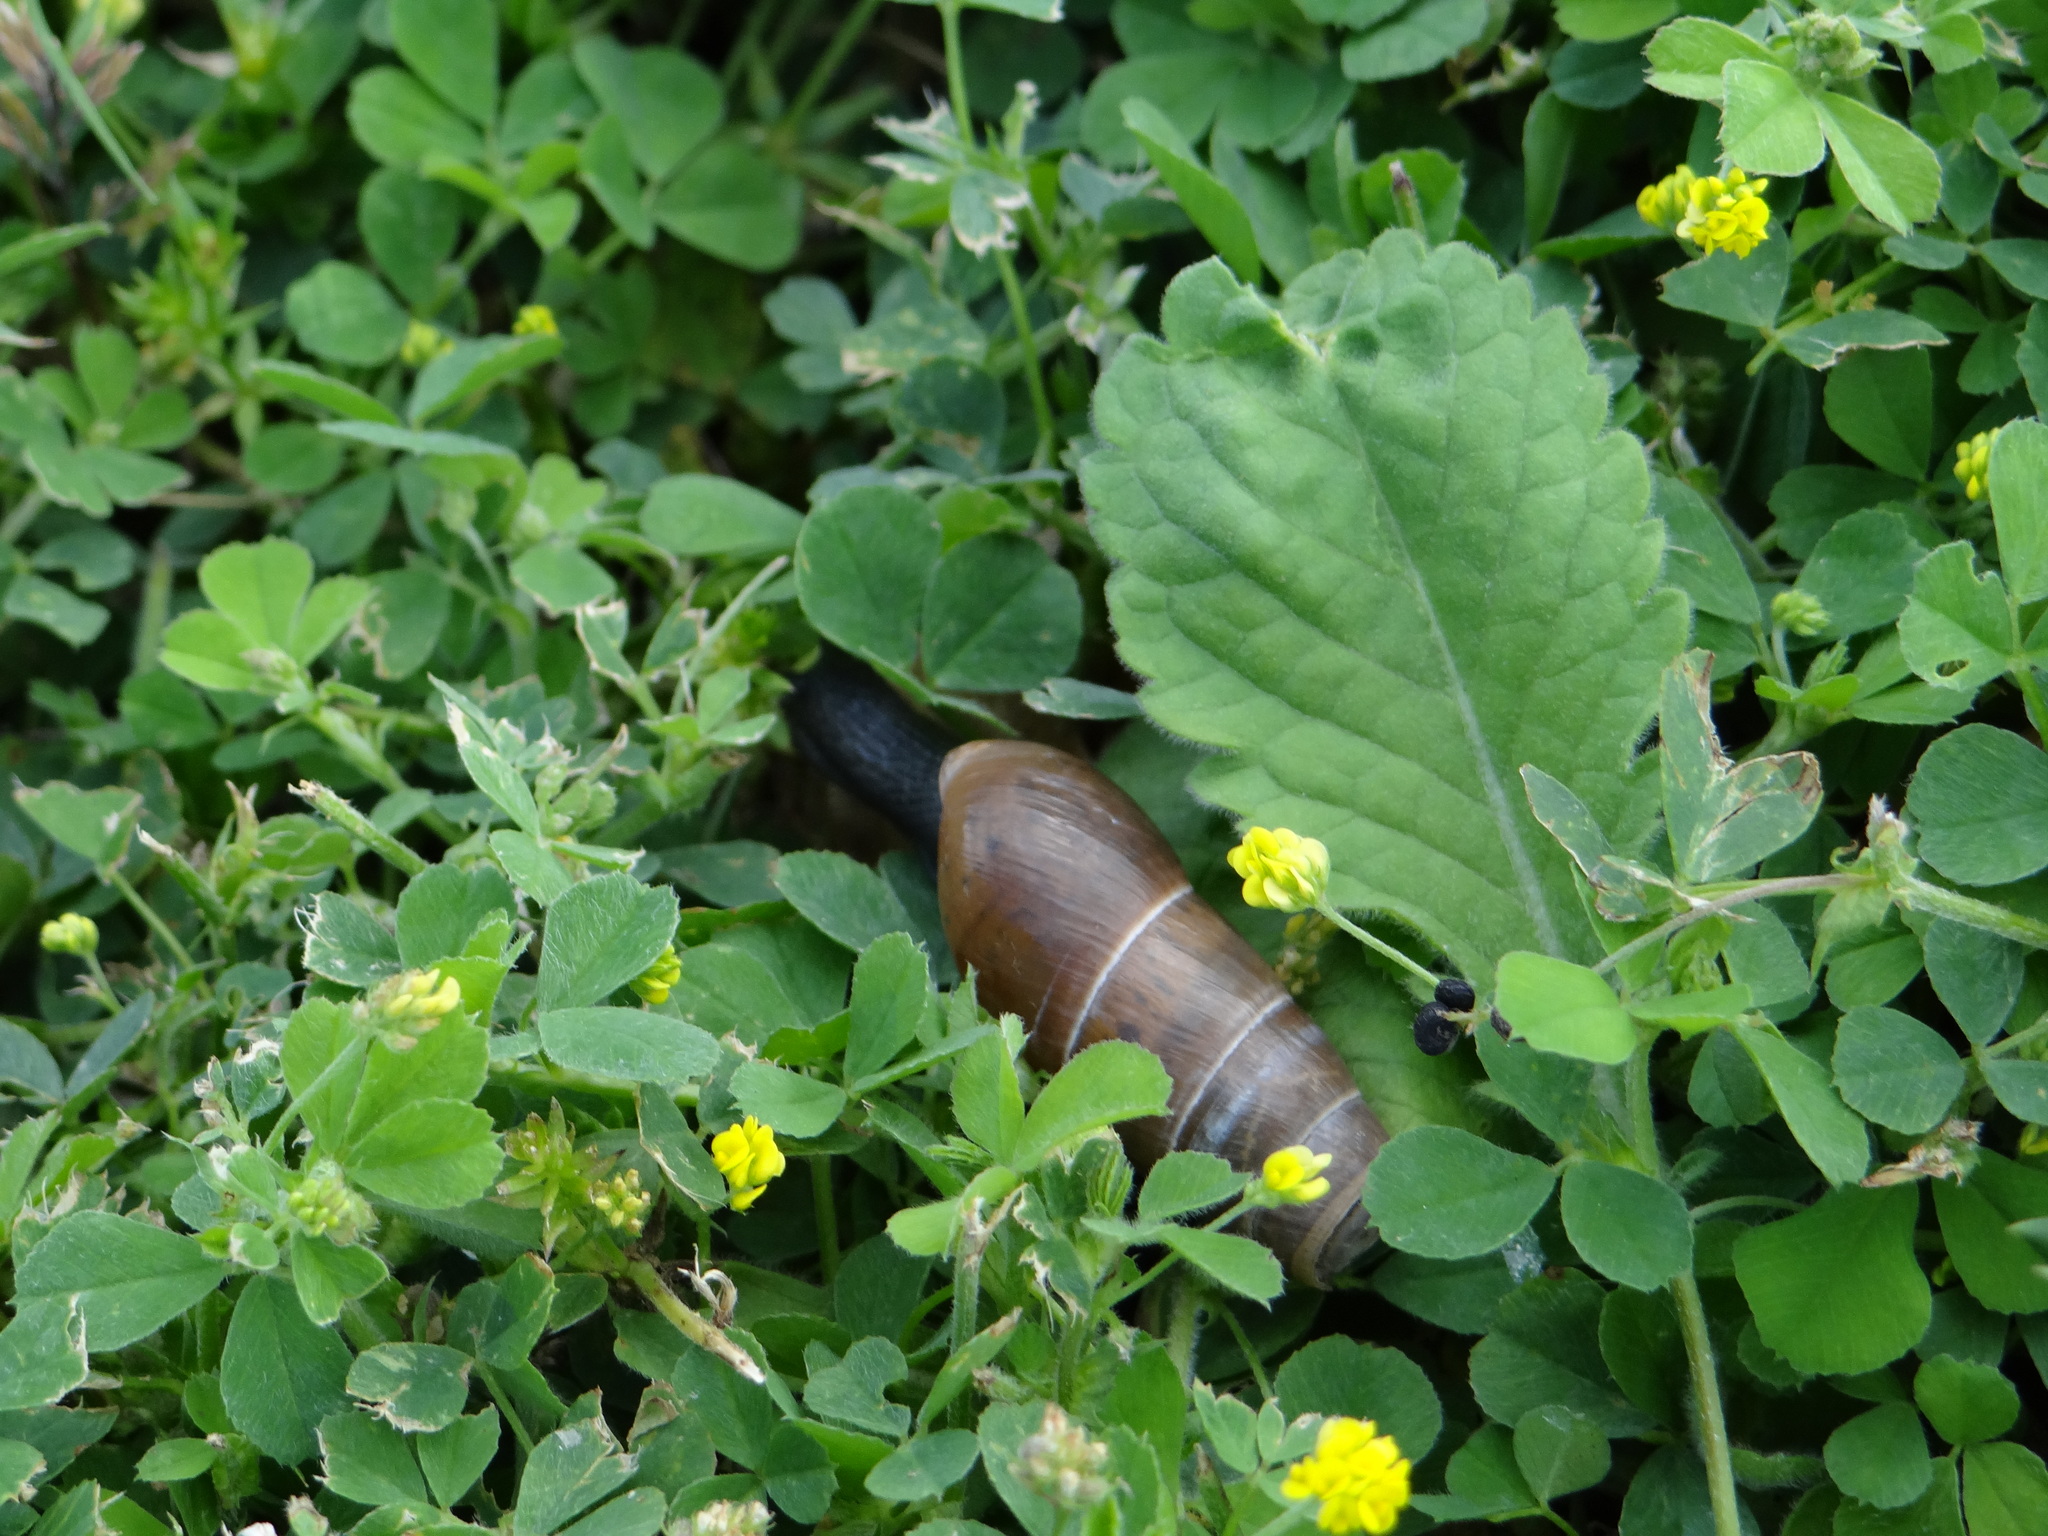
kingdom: Animalia
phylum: Mollusca
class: Gastropoda
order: Stylommatophora
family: Achatinidae
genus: Rumina
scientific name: Rumina decollata
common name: Decollate snail
